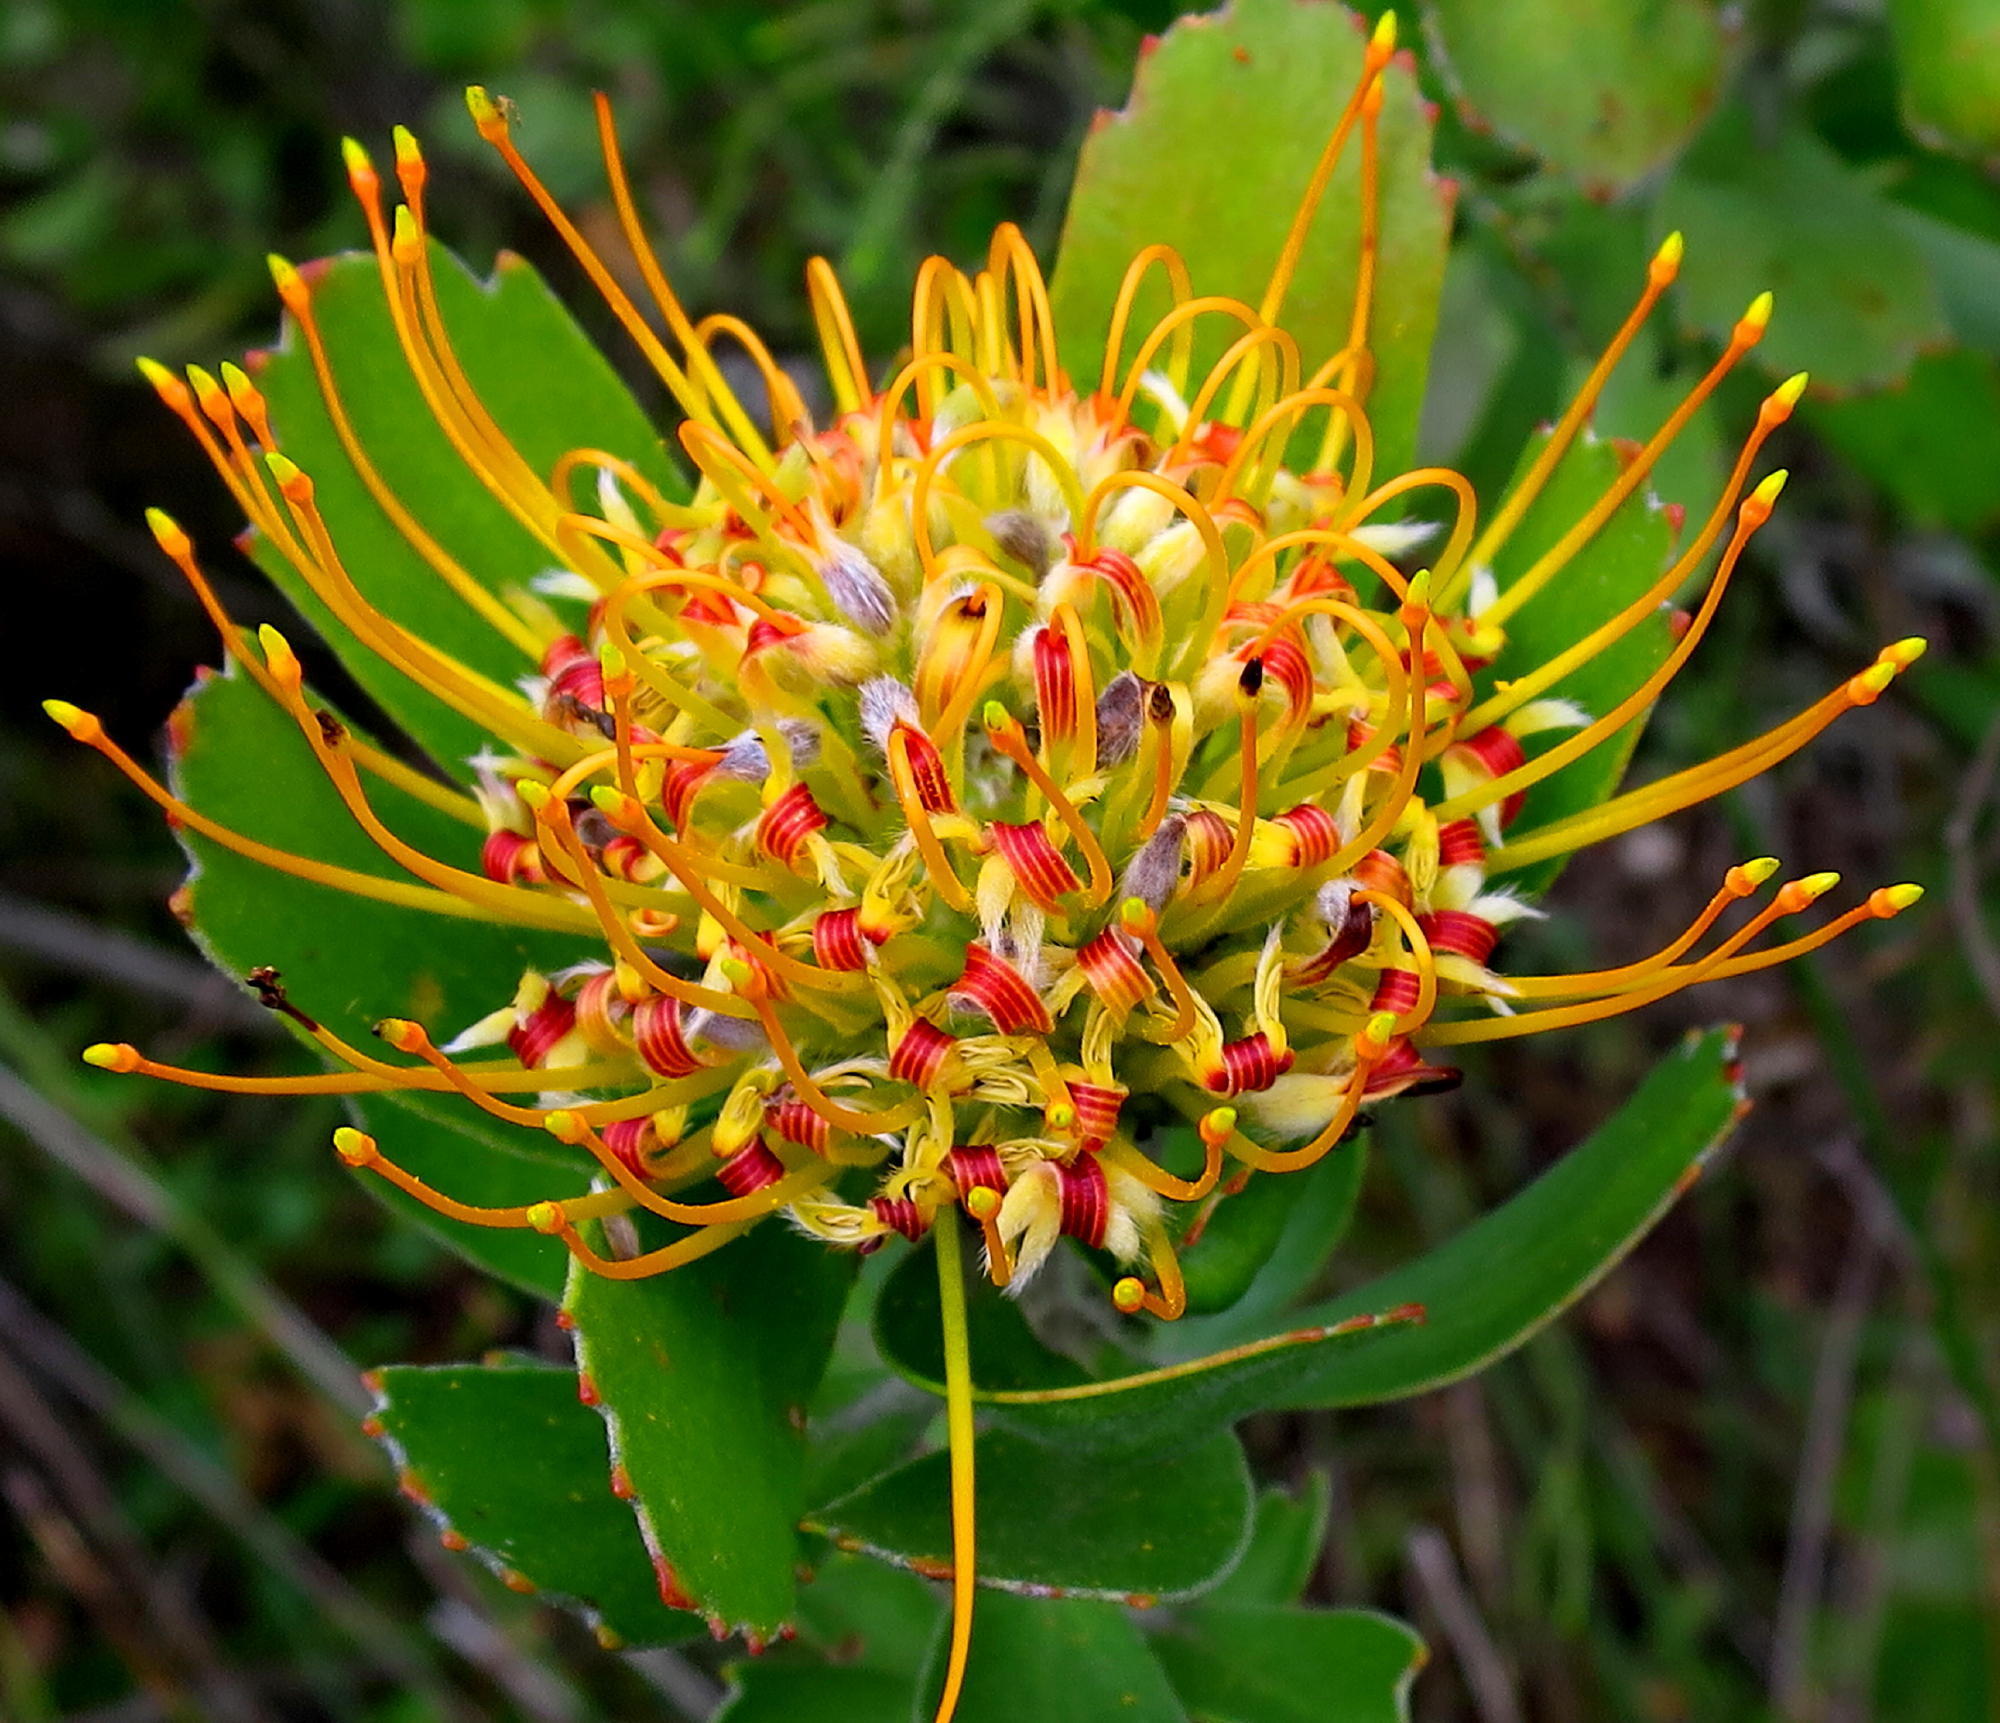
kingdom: Plantae
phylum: Tracheophyta
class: Magnoliopsida
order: Proteales
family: Proteaceae
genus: Leucospermum
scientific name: Leucospermum praecox
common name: Mossel bay pincushion
